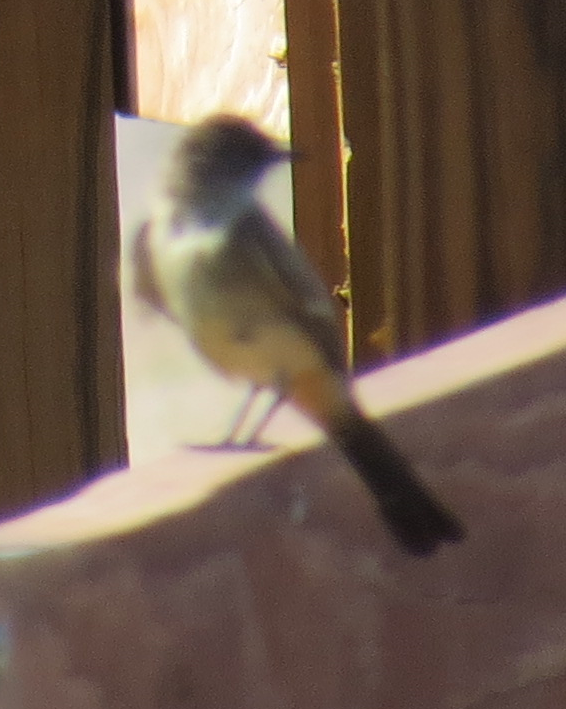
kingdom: Animalia
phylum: Chordata
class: Aves
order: Passeriformes
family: Tyrannidae
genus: Sayornis
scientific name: Sayornis saya
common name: Say's phoebe
